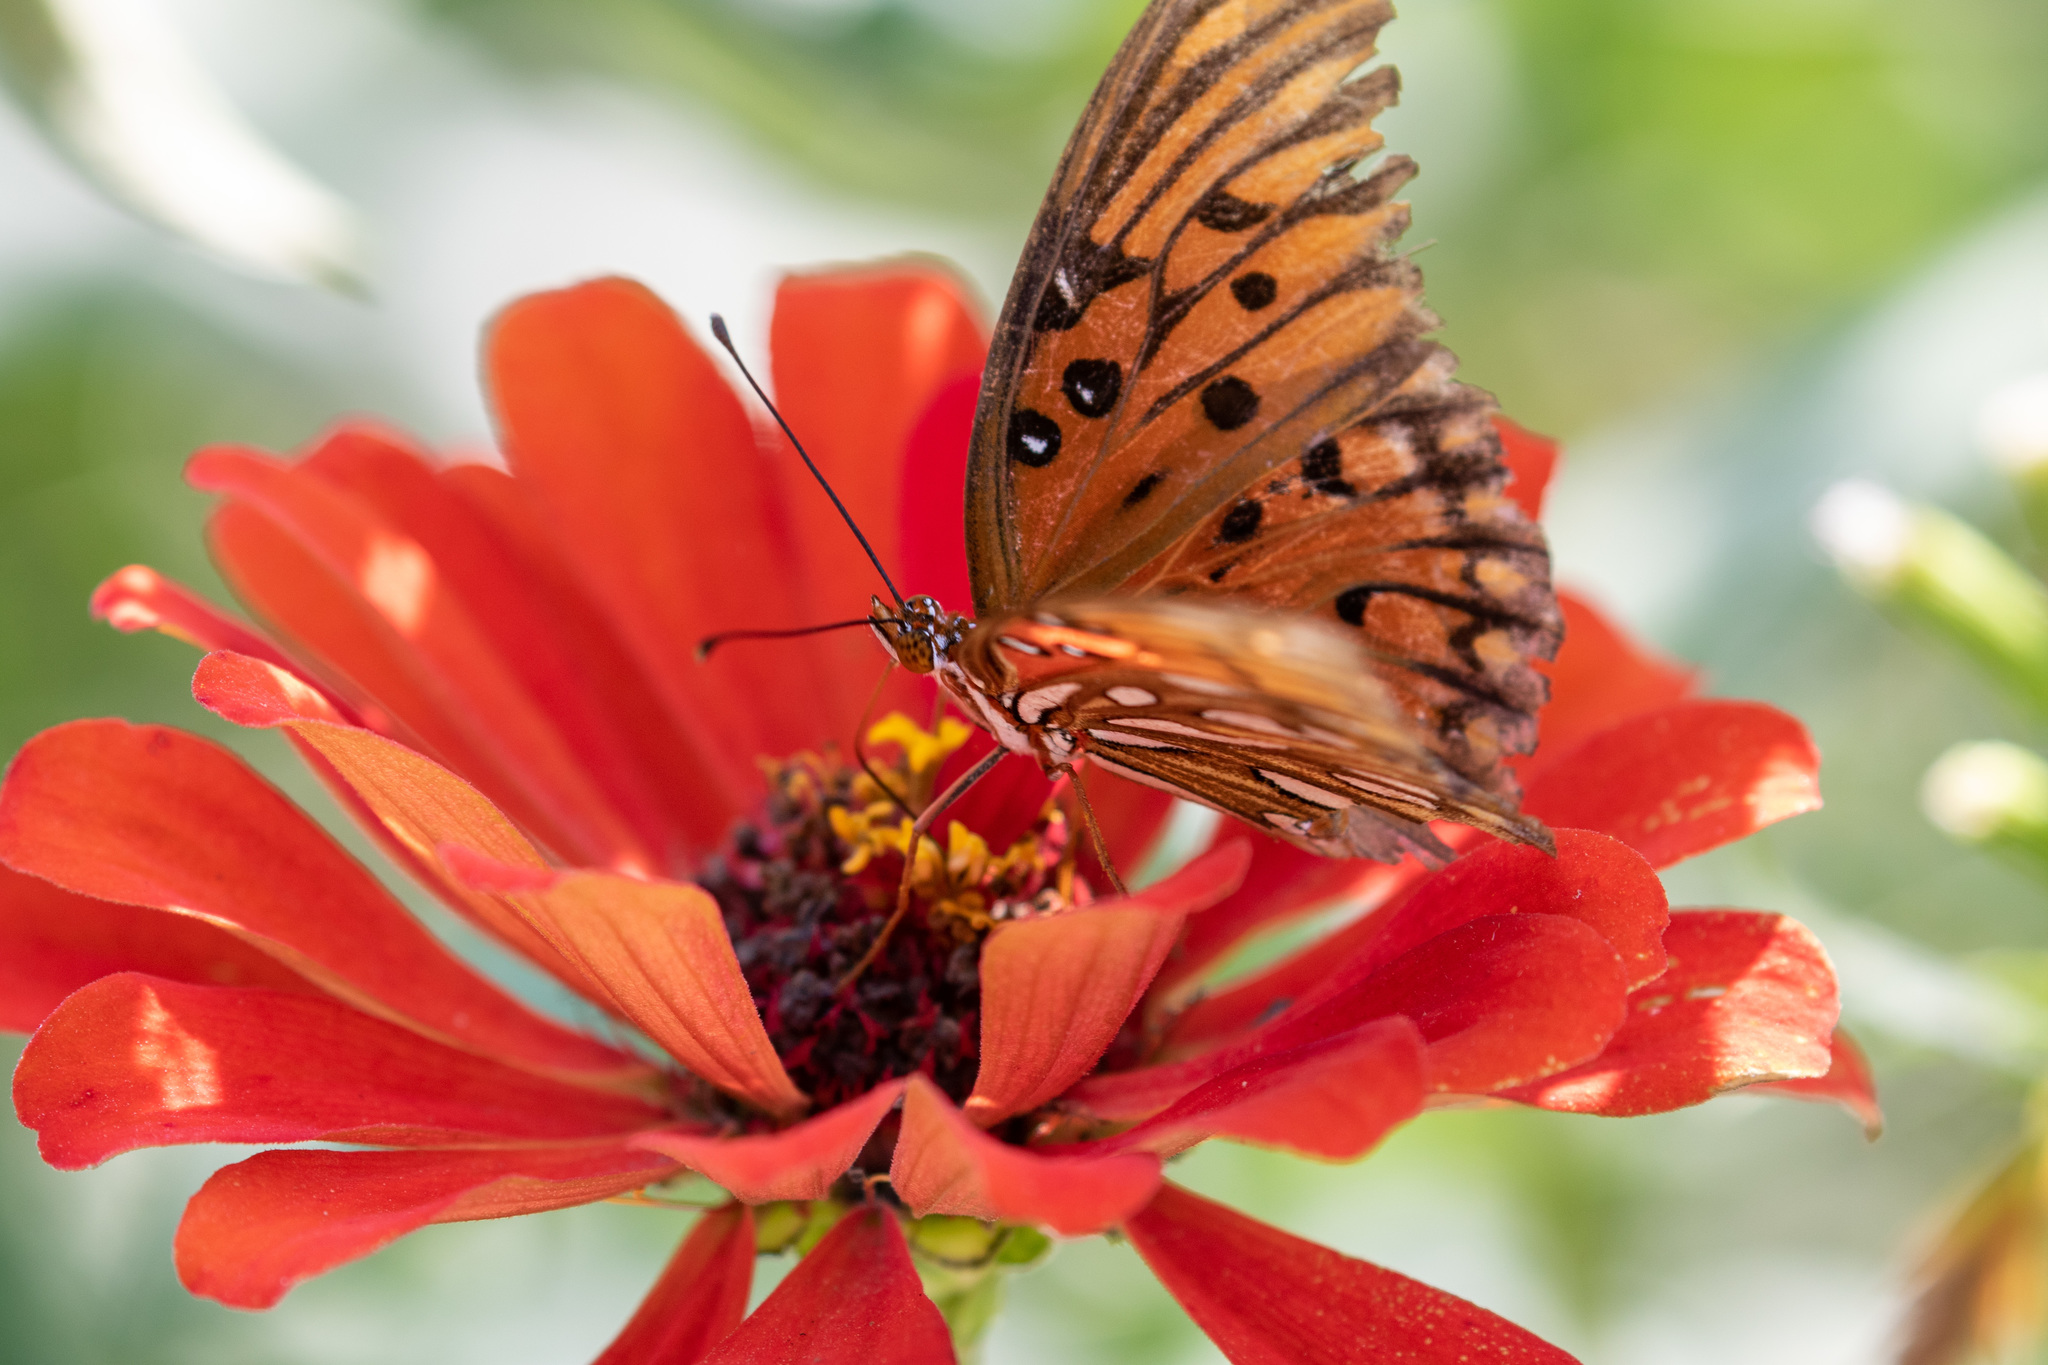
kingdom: Animalia
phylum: Arthropoda
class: Insecta
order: Lepidoptera
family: Nymphalidae
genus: Dione
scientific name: Dione vanillae
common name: Gulf fritillary
